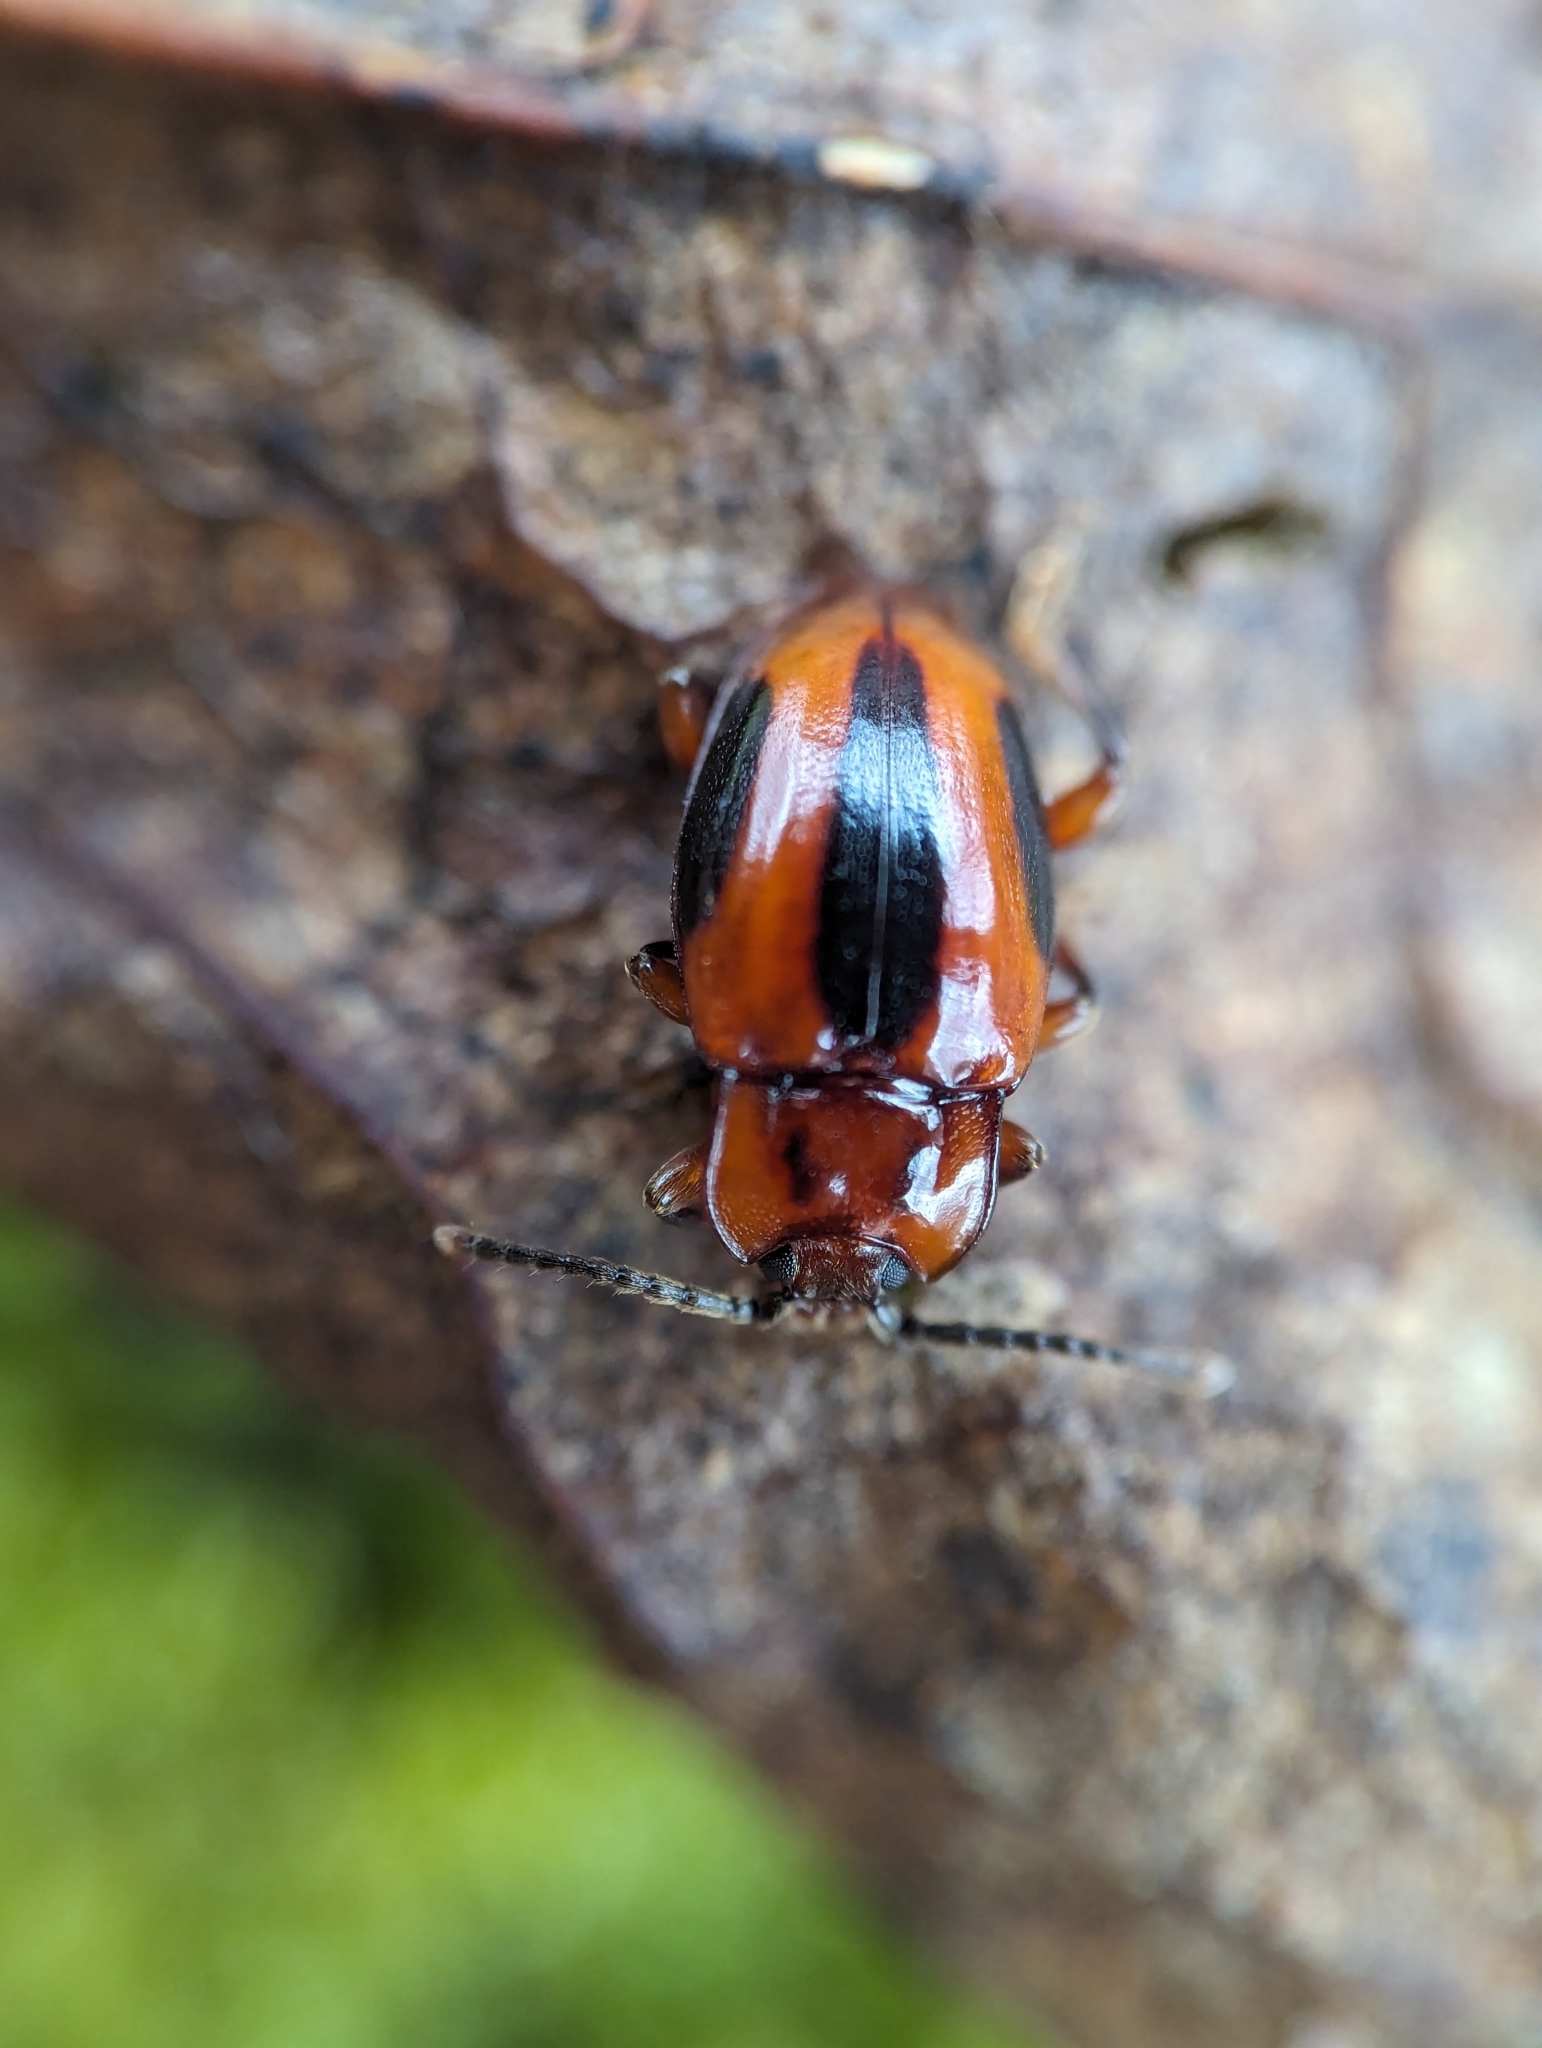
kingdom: Animalia
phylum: Arthropoda
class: Insecta
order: Coleoptera
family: Endomychidae
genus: Aphorista
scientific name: Aphorista vittata
